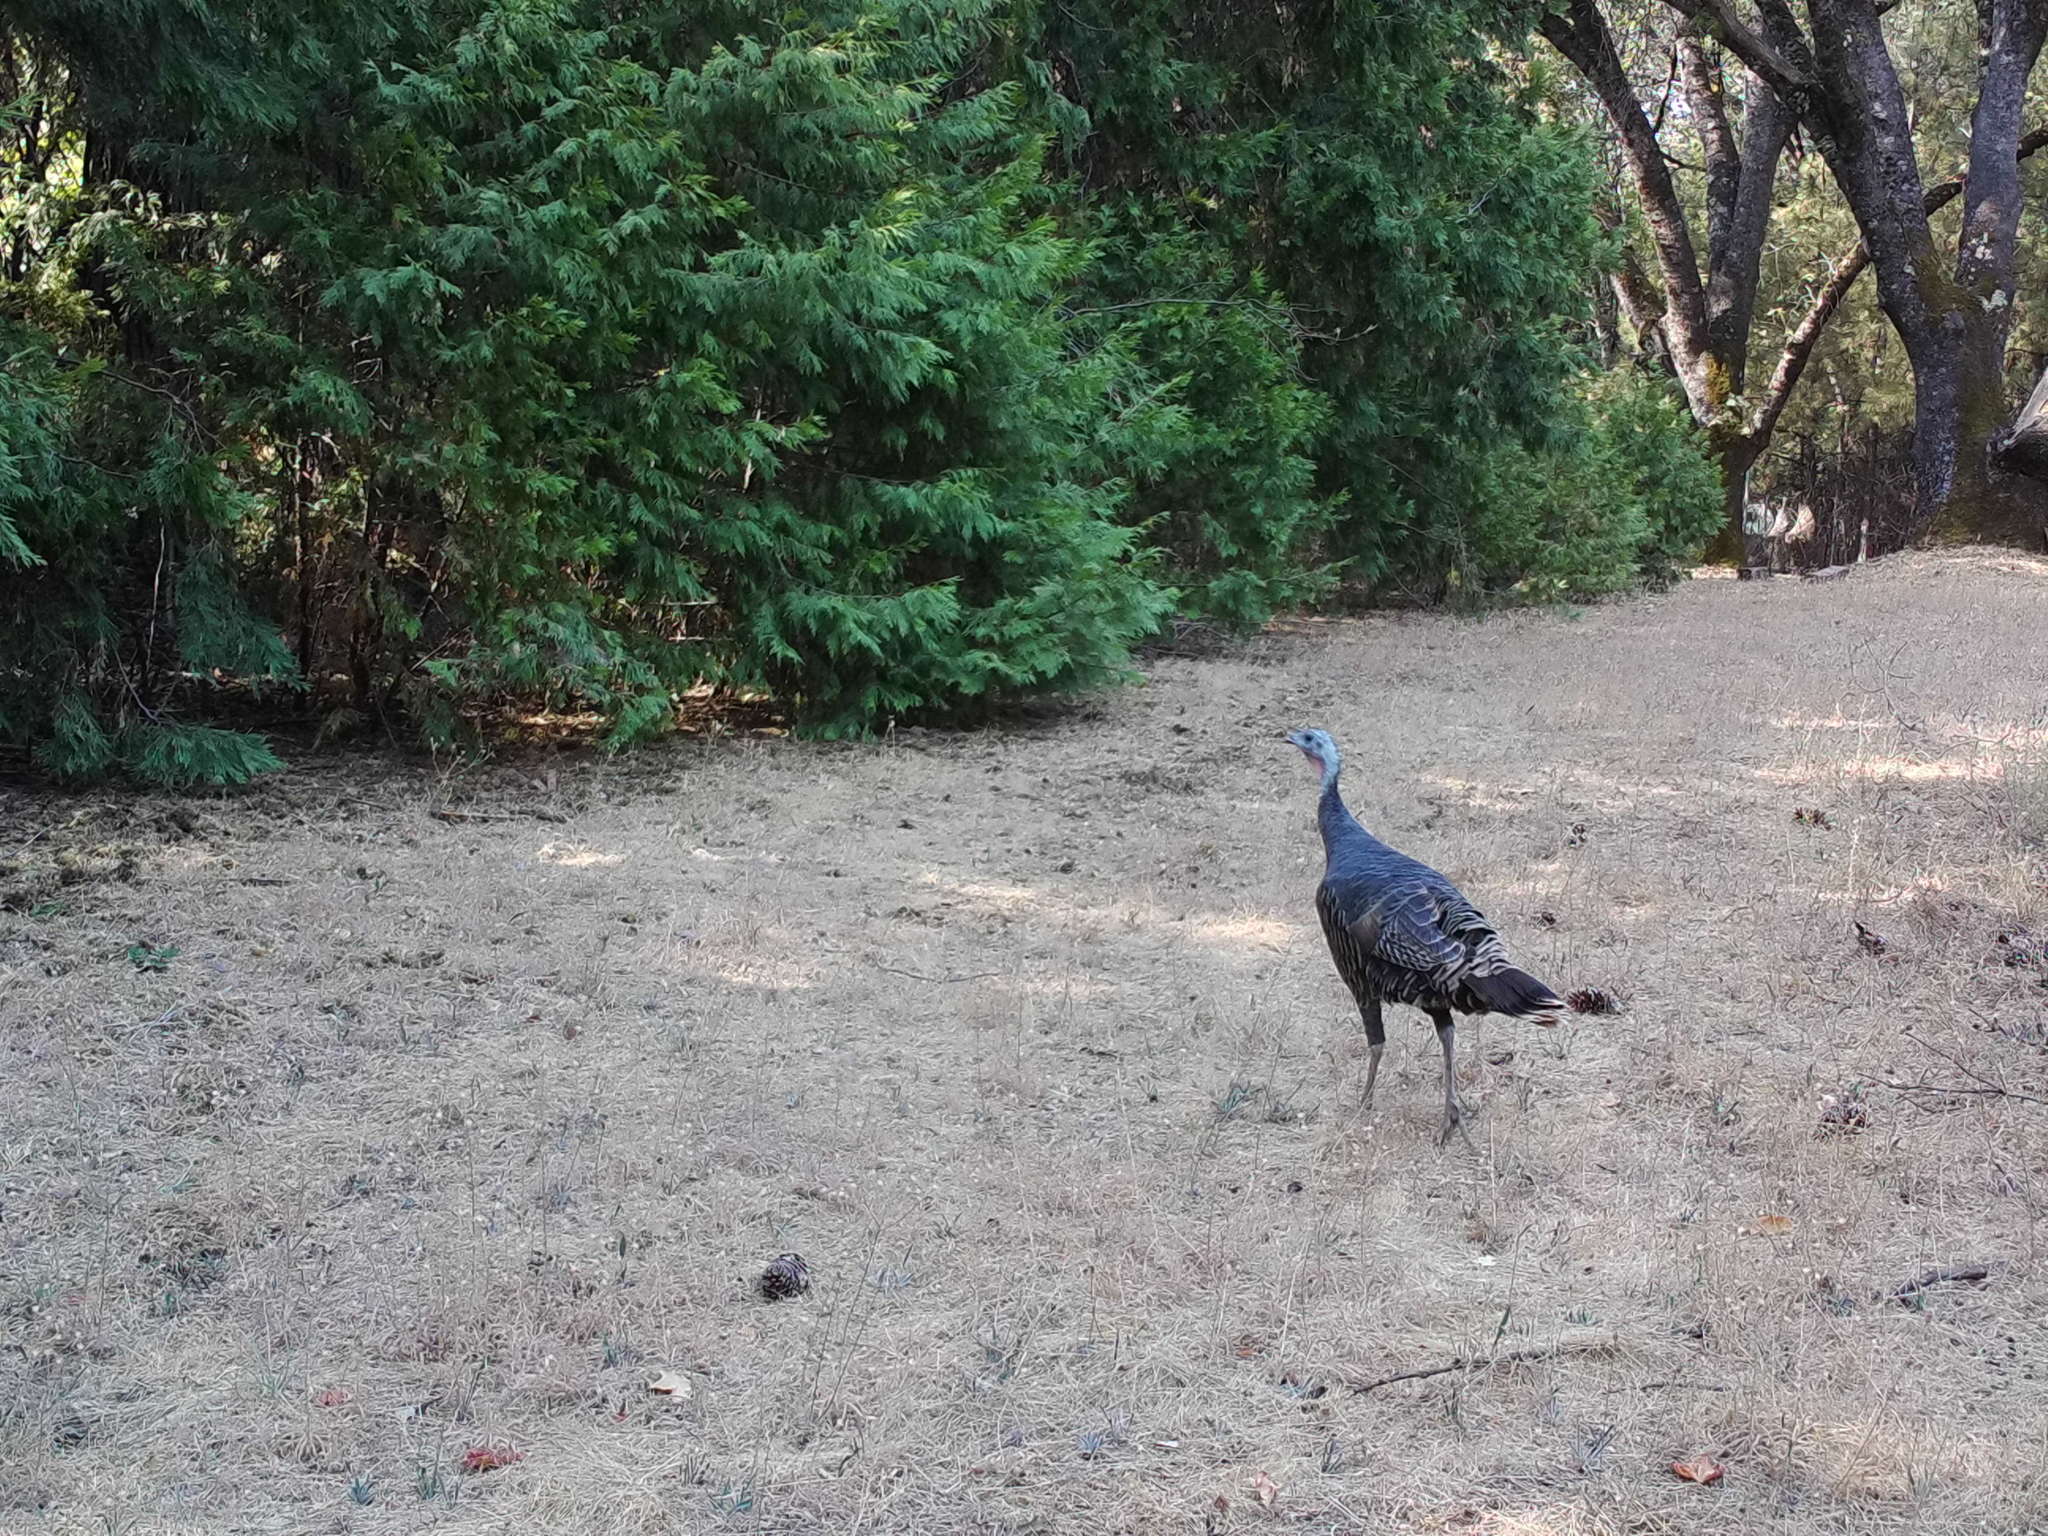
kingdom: Animalia
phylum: Chordata
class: Aves
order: Galliformes
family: Phasianidae
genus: Meleagris
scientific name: Meleagris gallopavo
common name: Wild turkey
